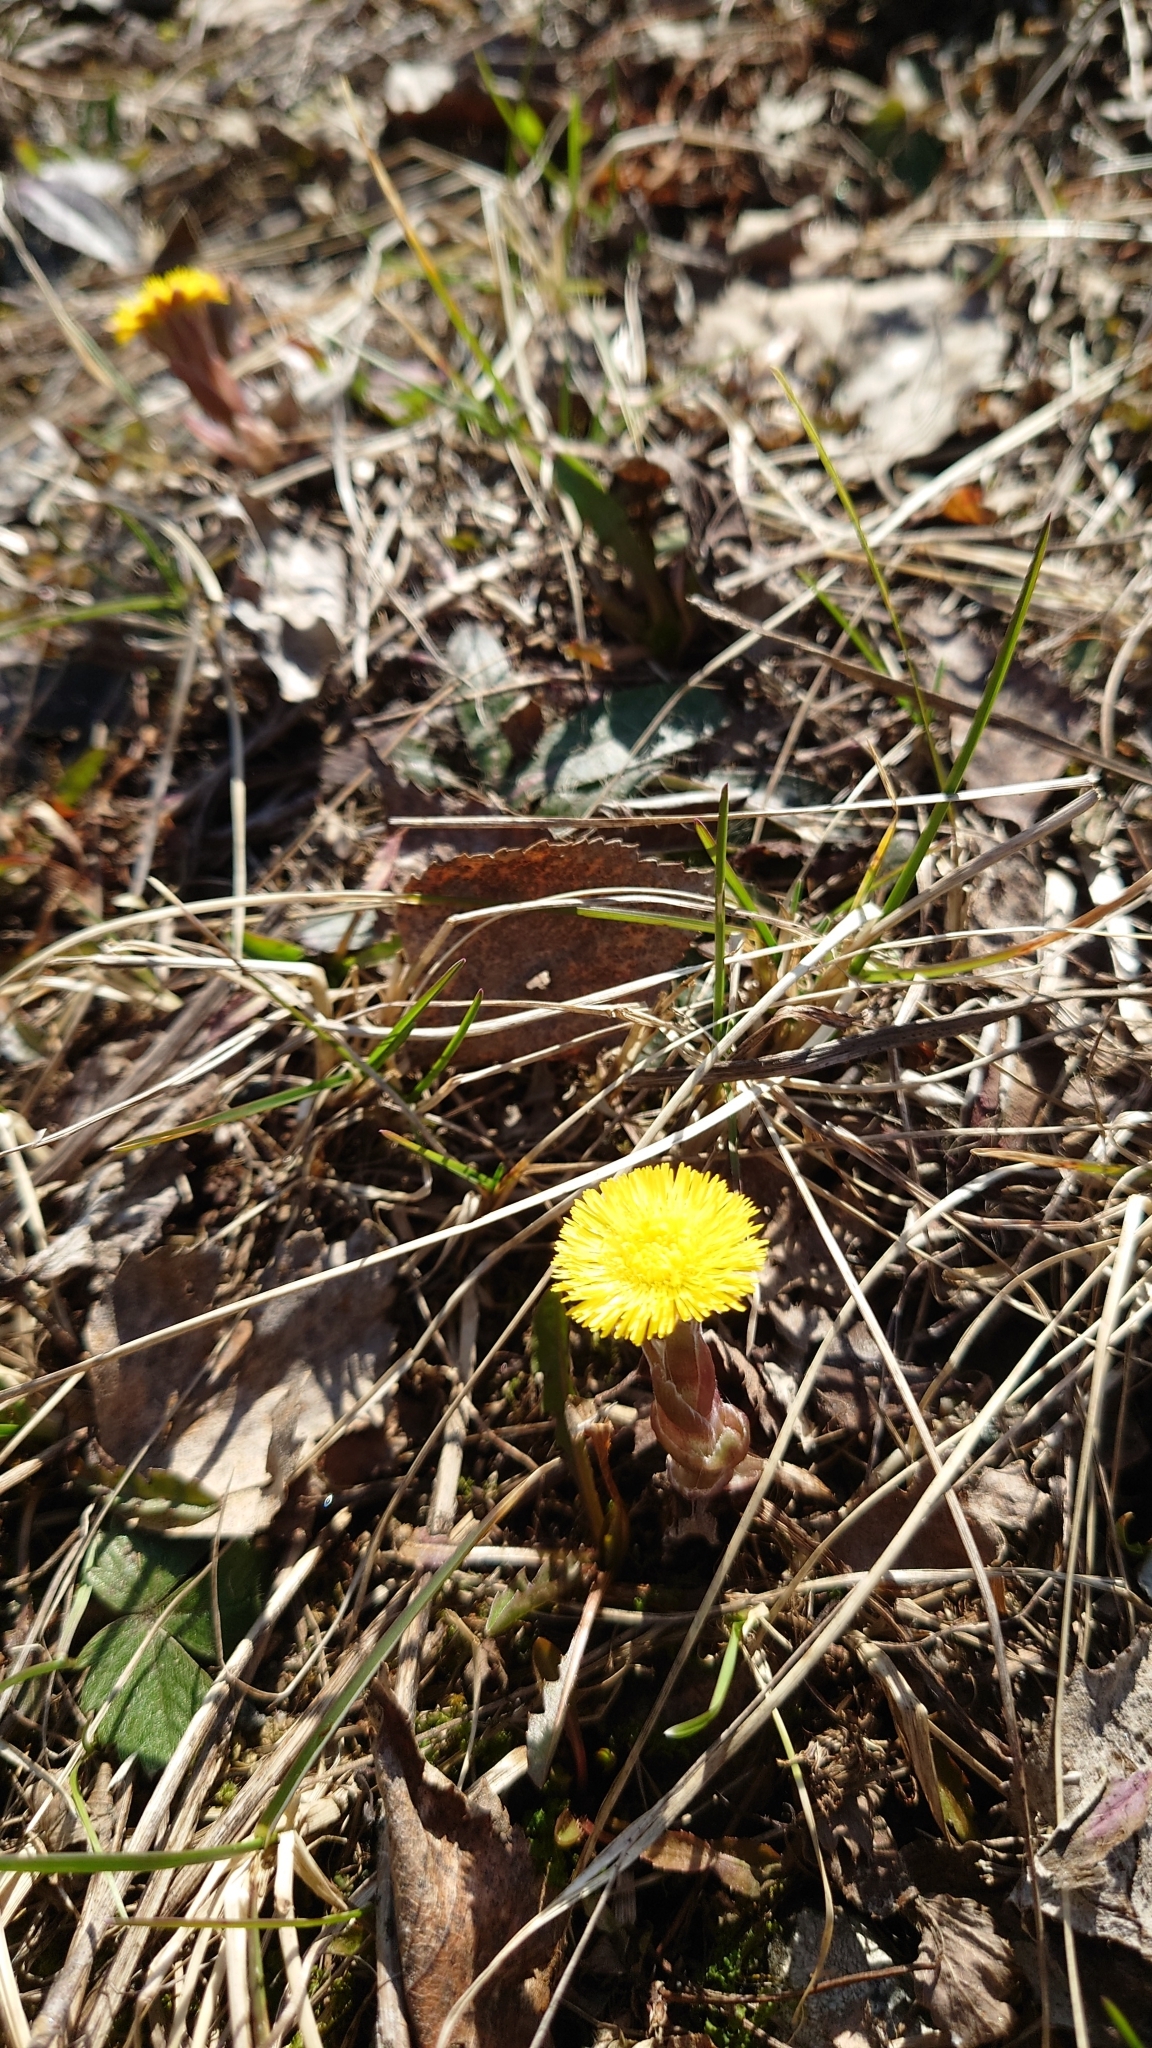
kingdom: Plantae
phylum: Tracheophyta
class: Magnoliopsida
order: Asterales
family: Asteraceae
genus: Tussilago
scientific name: Tussilago farfara
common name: Coltsfoot
